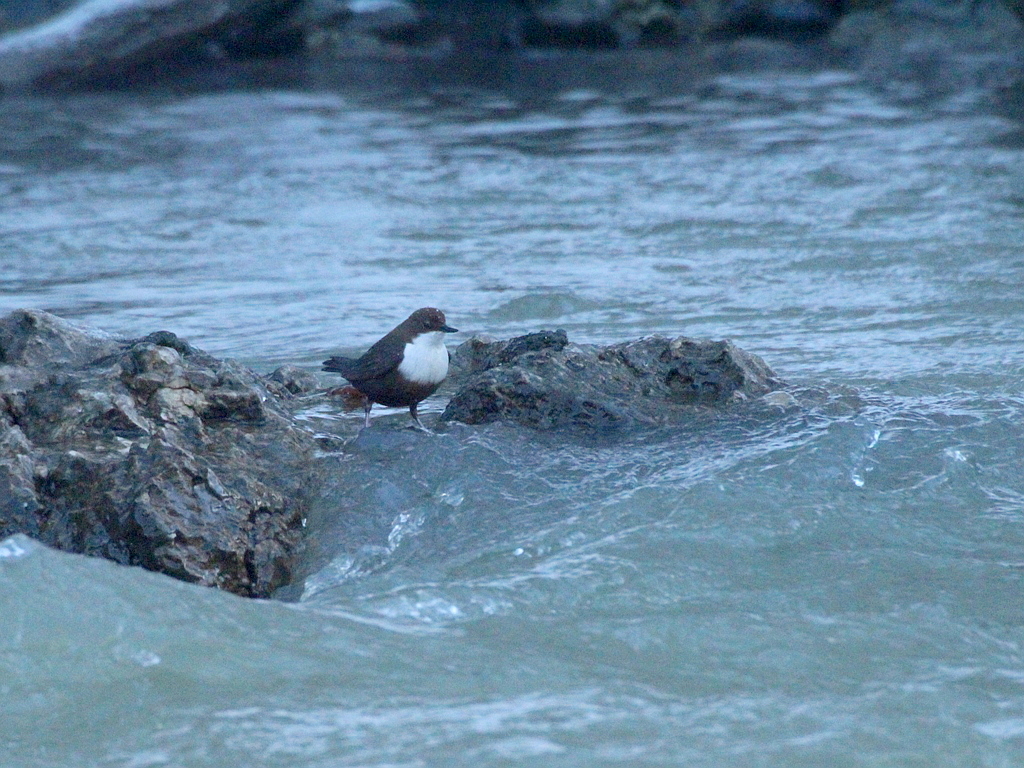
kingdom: Animalia
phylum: Chordata
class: Aves
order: Passeriformes
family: Cinclidae
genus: Cinclus
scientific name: Cinclus cinclus
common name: White-throated dipper
